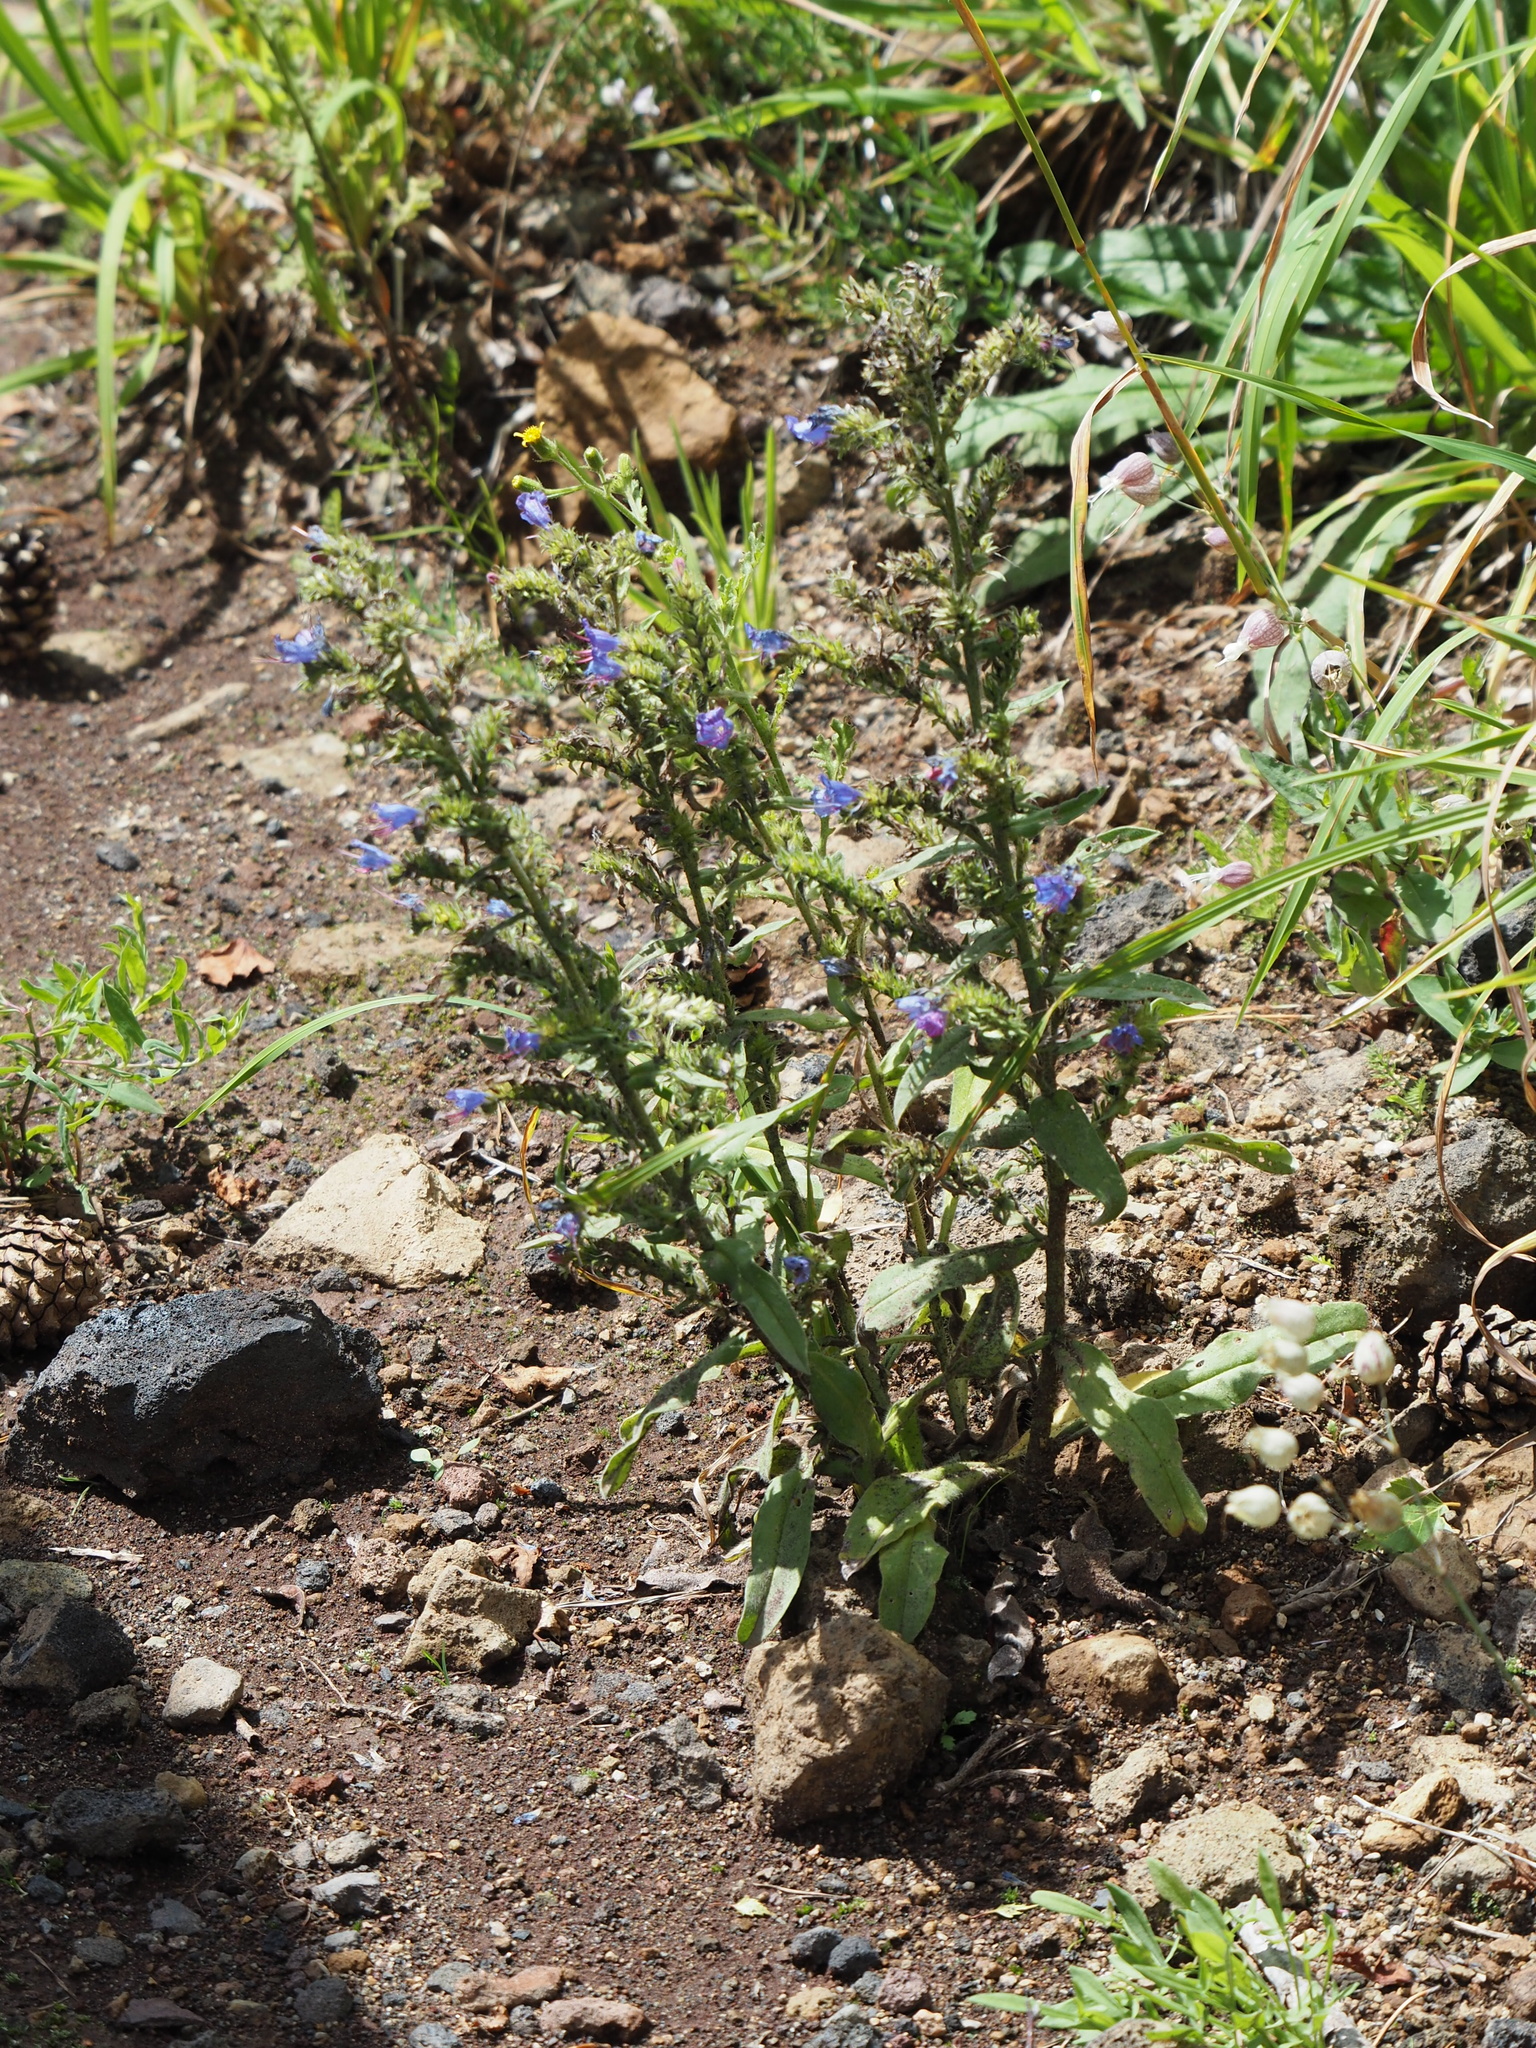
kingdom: Plantae
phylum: Tracheophyta
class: Magnoliopsida
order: Boraginales
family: Boraginaceae
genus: Echium
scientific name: Echium vulgare
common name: Common viper's bugloss
